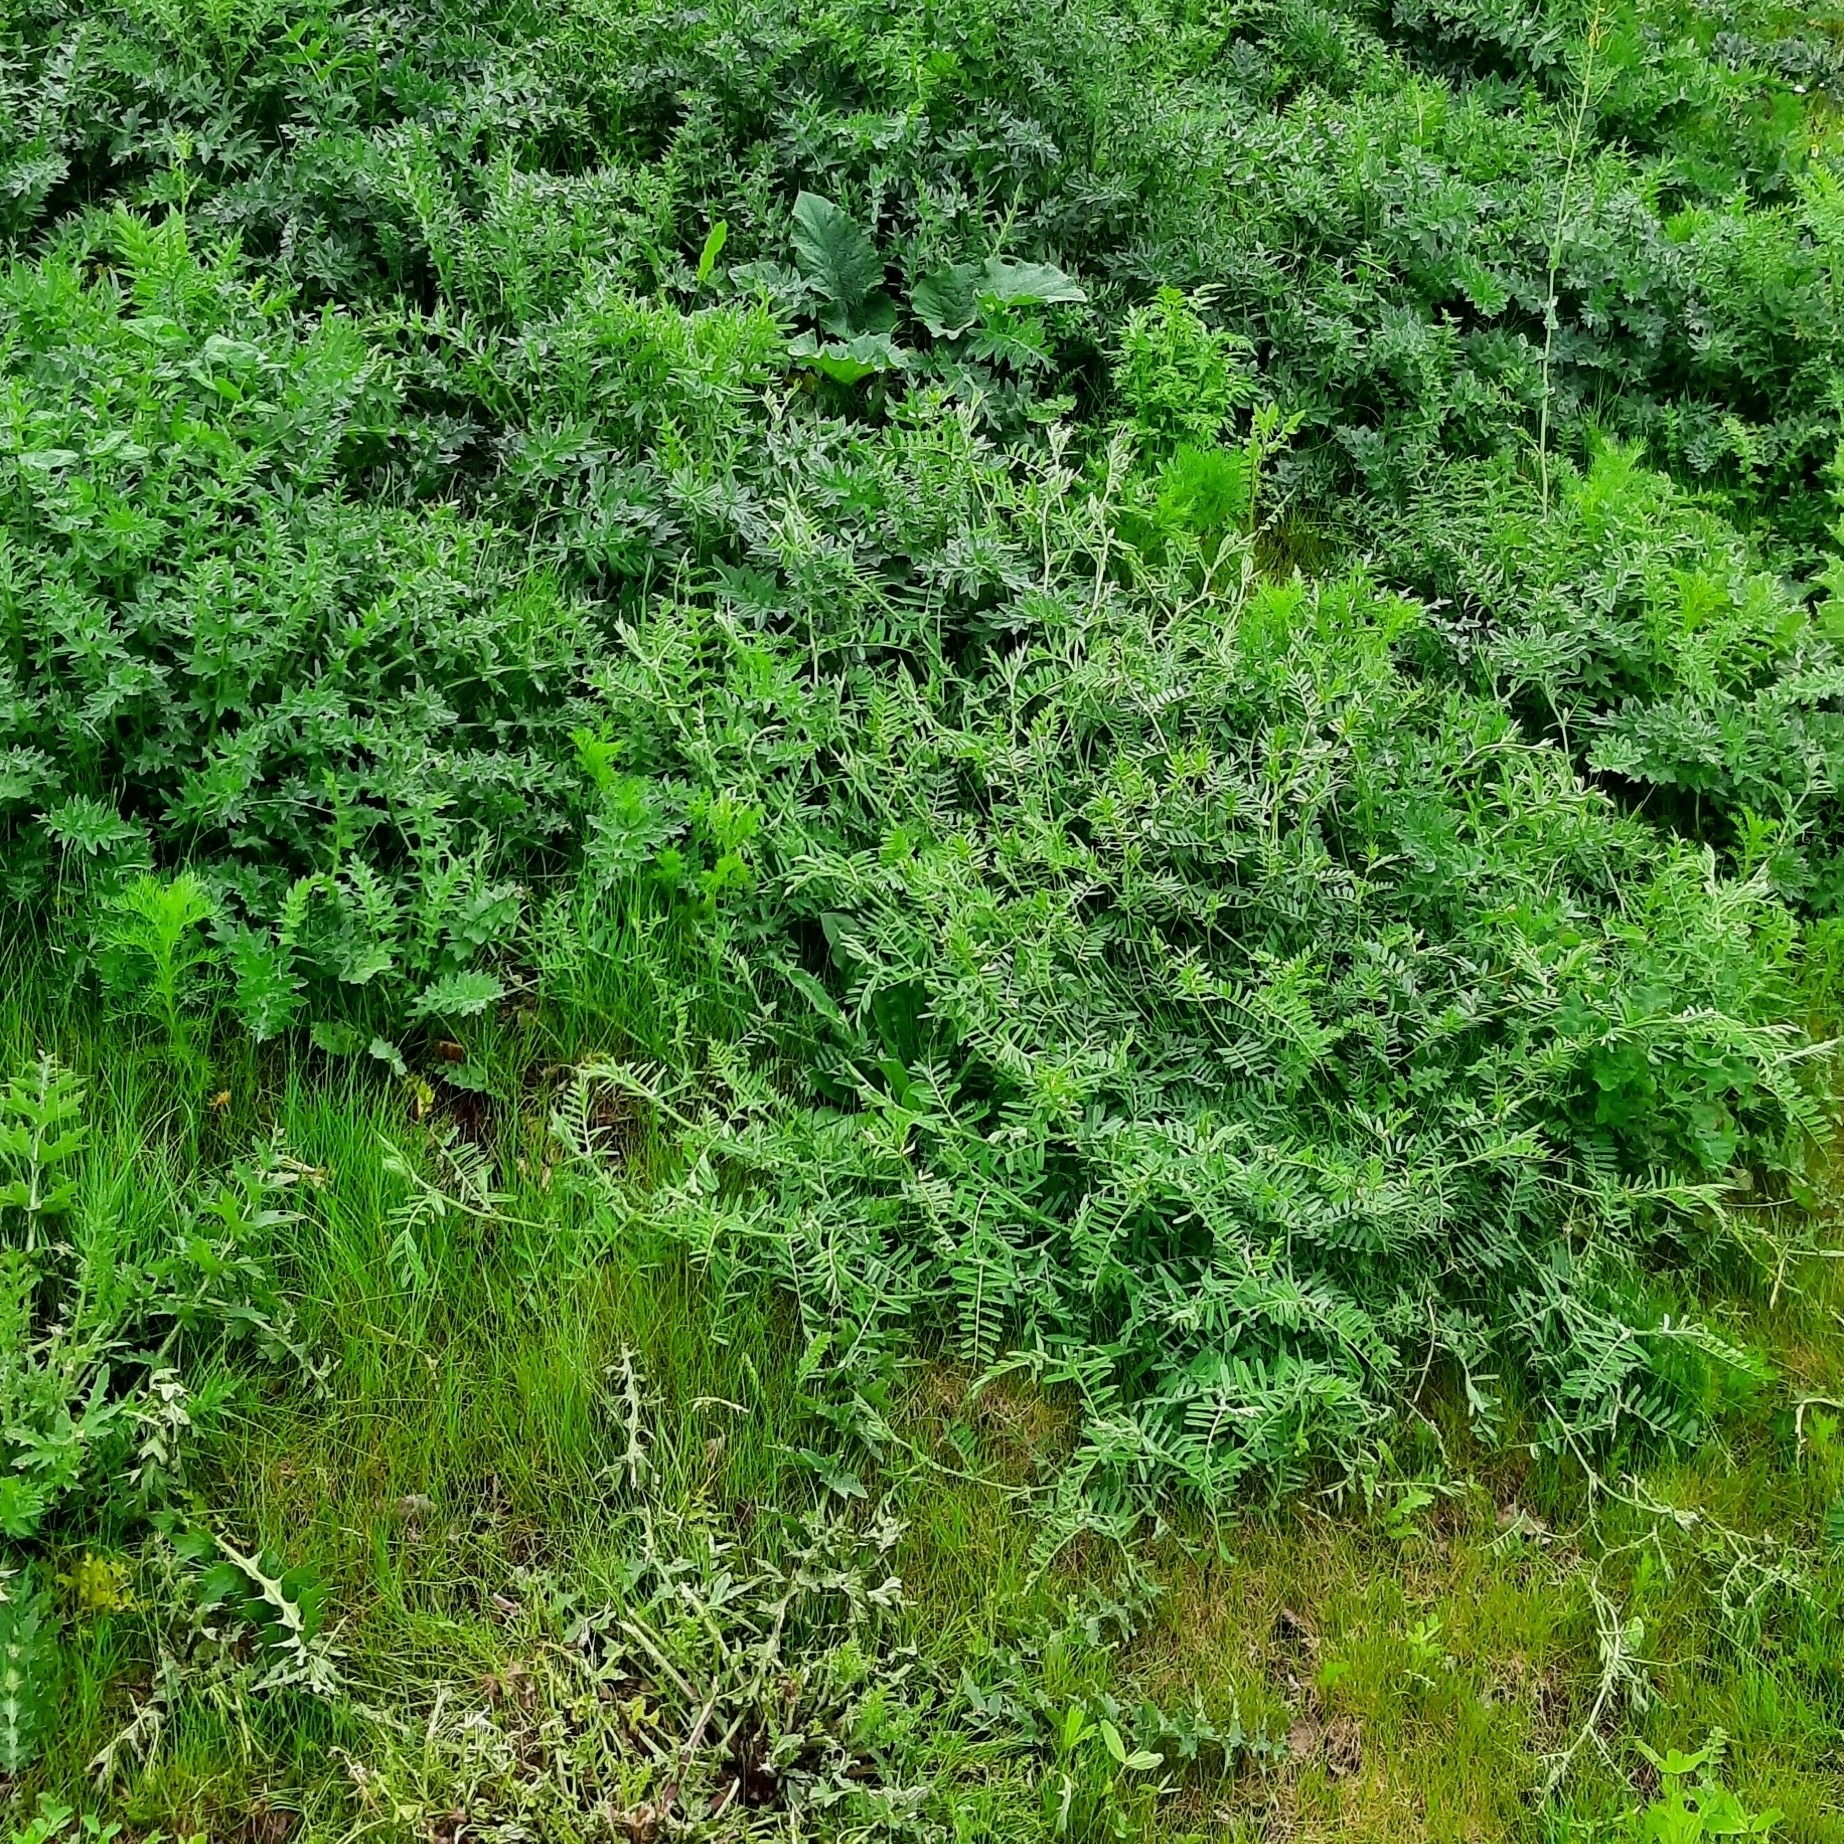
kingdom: Plantae
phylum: Tracheophyta
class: Magnoliopsida
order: Fabales
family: Fabaceae
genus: Vicia
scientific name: Vicia
